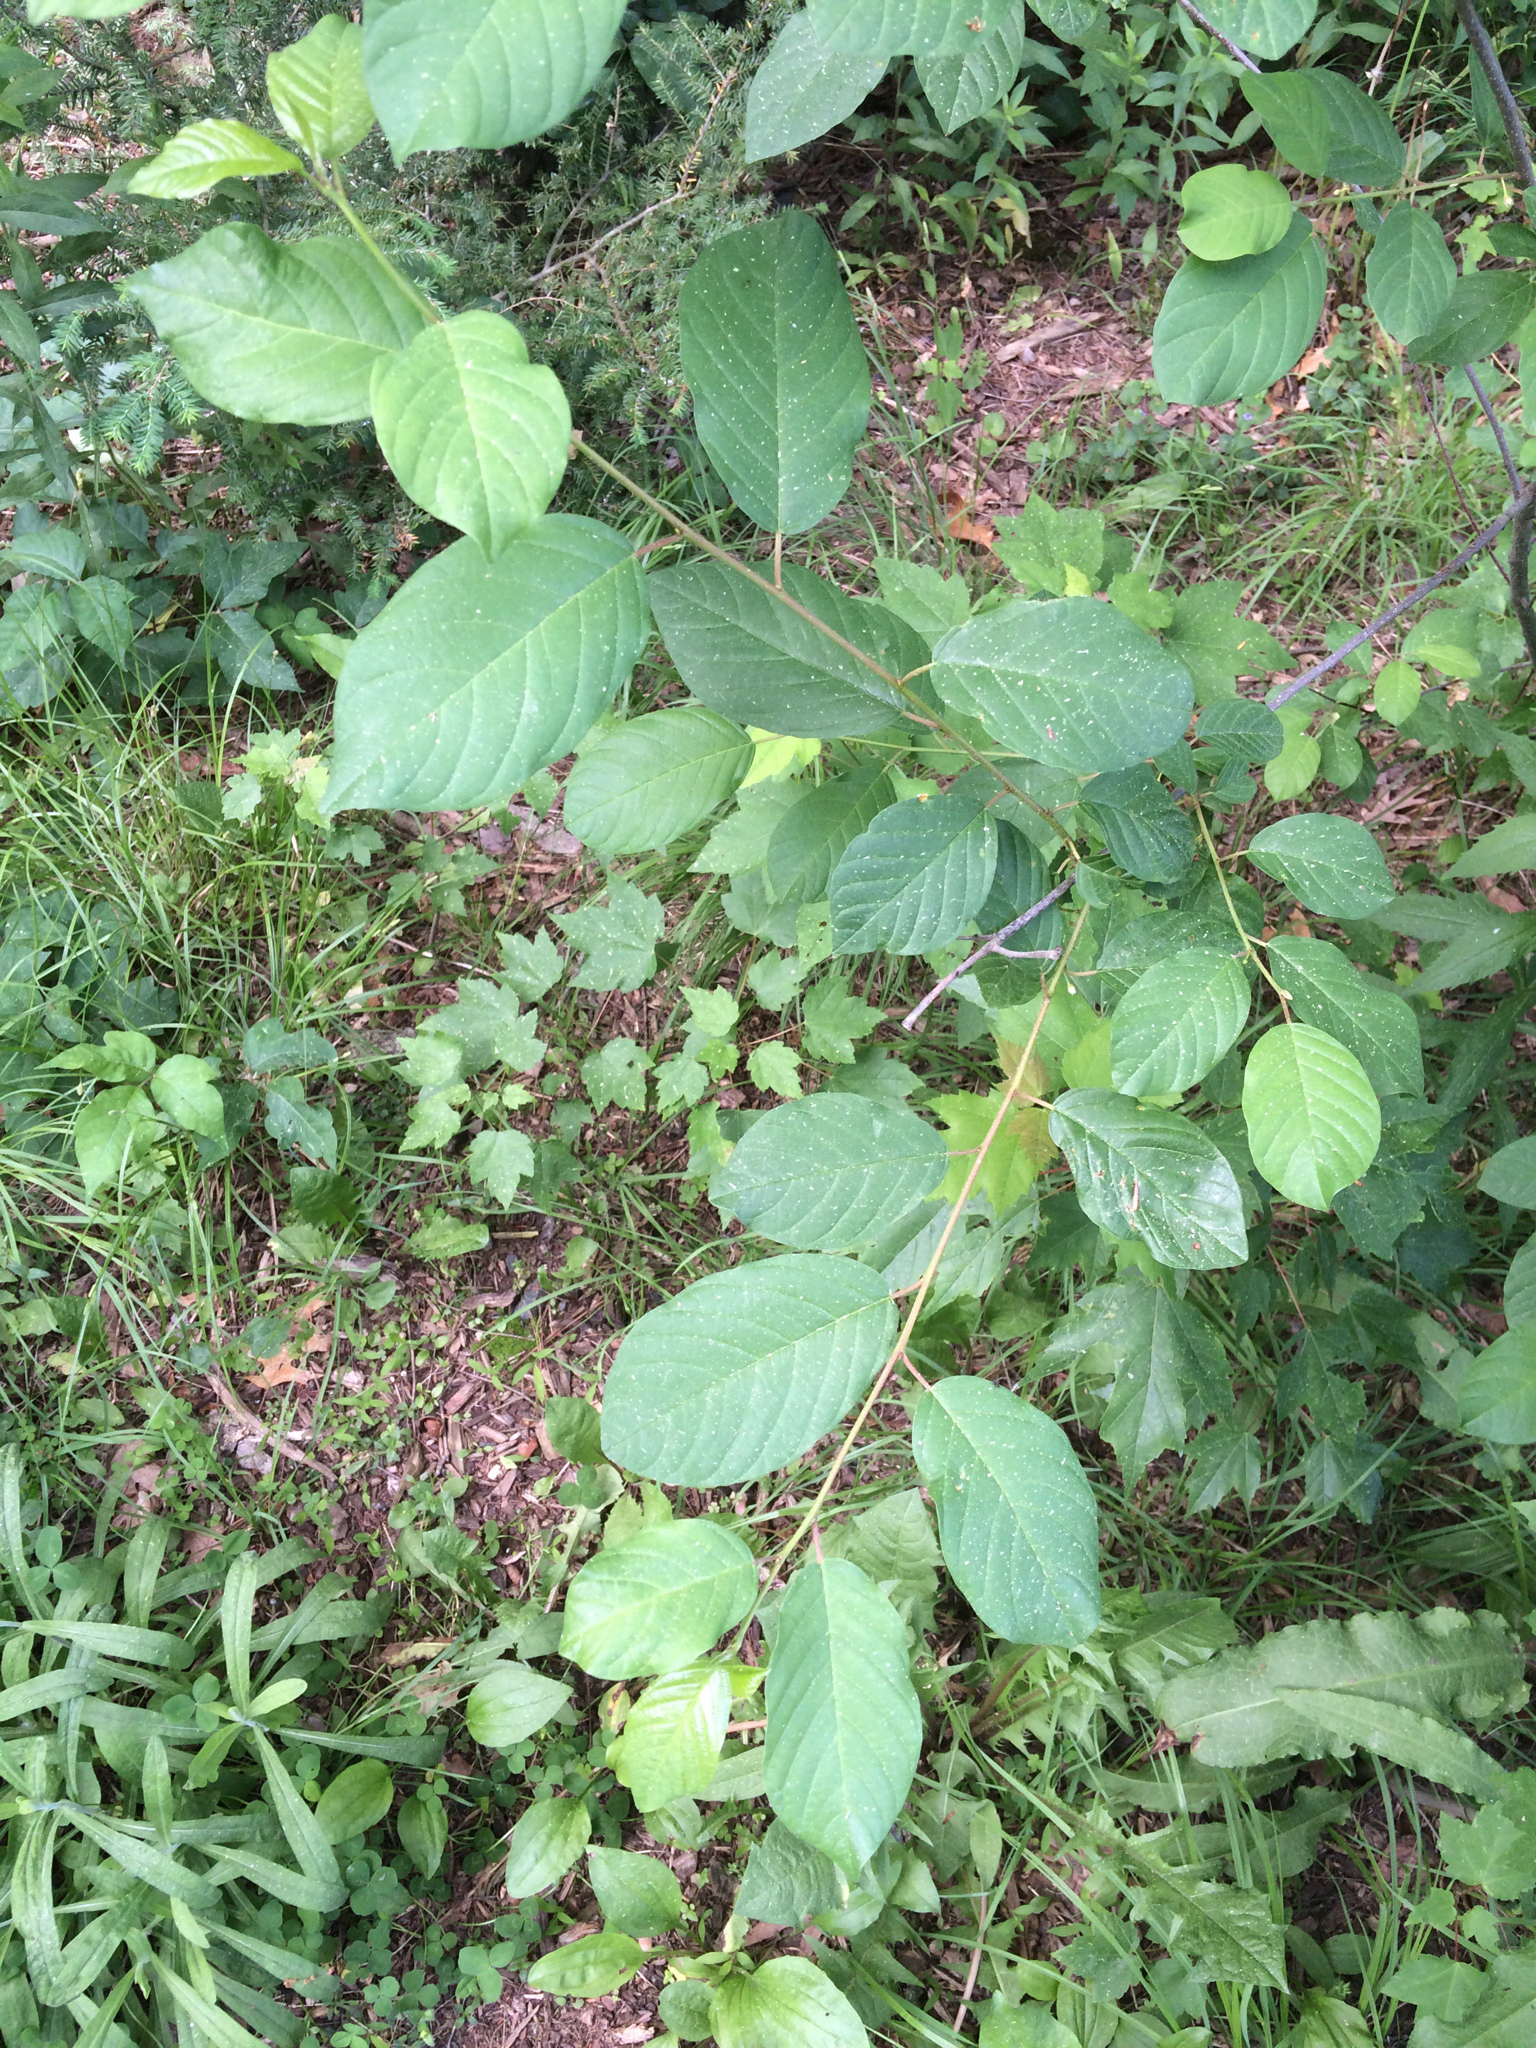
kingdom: Plantae
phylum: Tracheophyta
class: Magnoliopsida
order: Rosales
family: Rhamnaceae
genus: Frangula
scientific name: Frangula alnus
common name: Alder buckthorn
